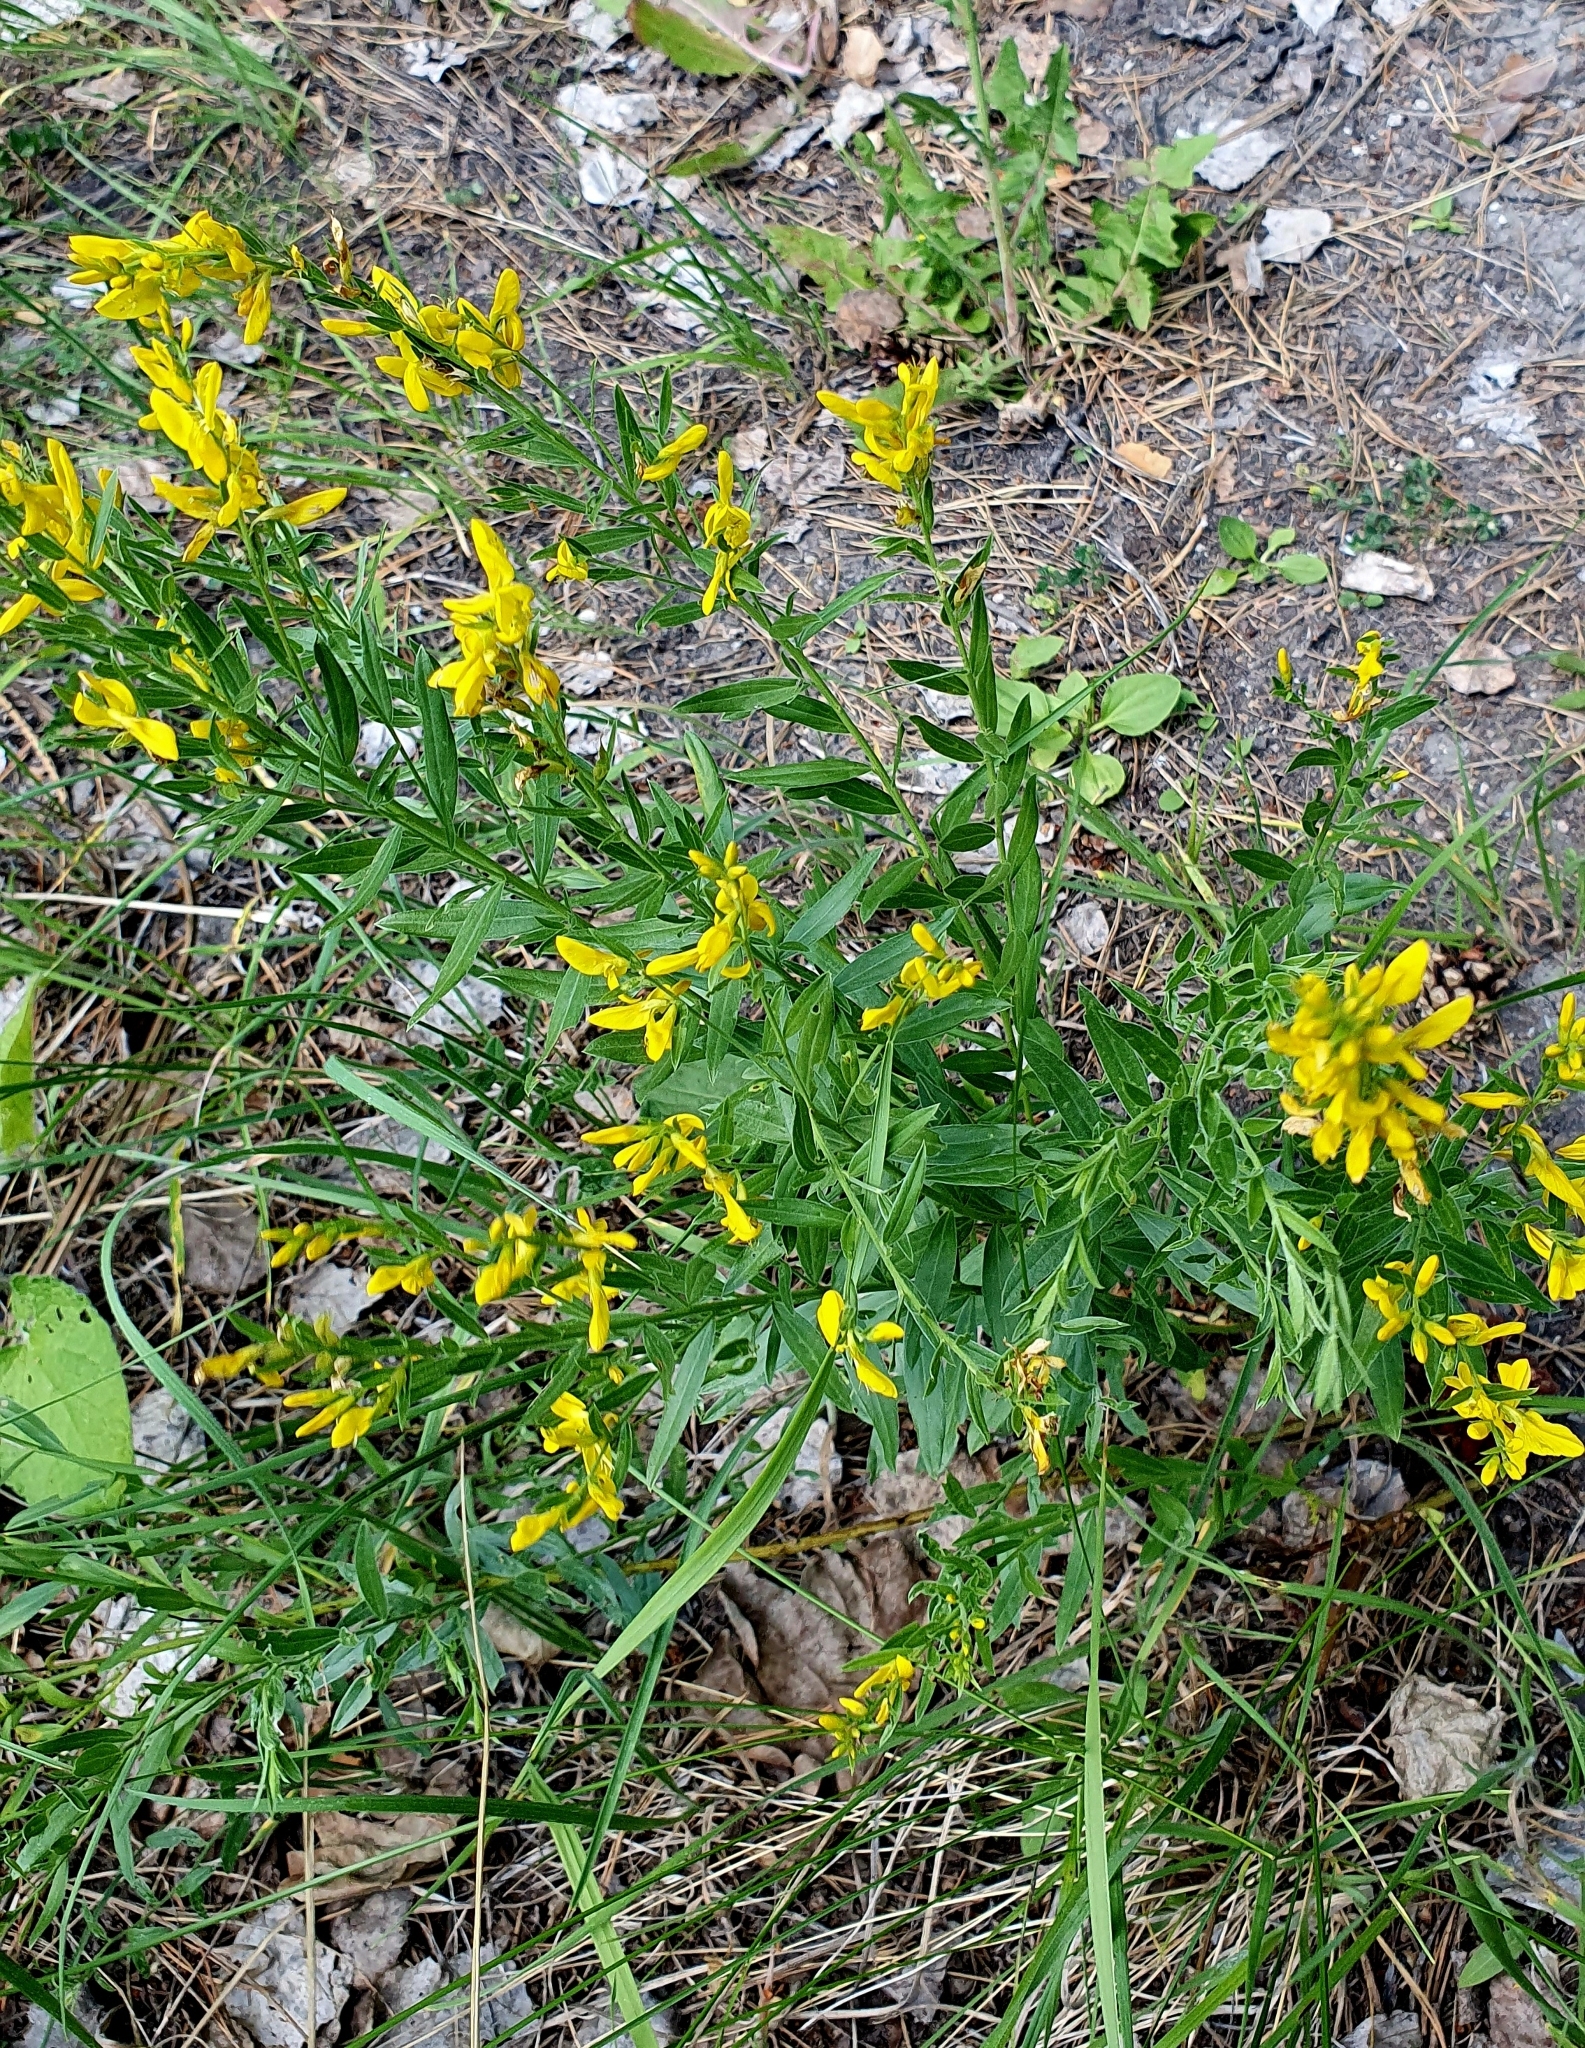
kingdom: Plantae
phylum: Tracheophyta
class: Magnoliopsida
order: Fabales
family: Fabaceae
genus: Genista
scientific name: Genista tinctoria
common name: Dyer's greenweed
